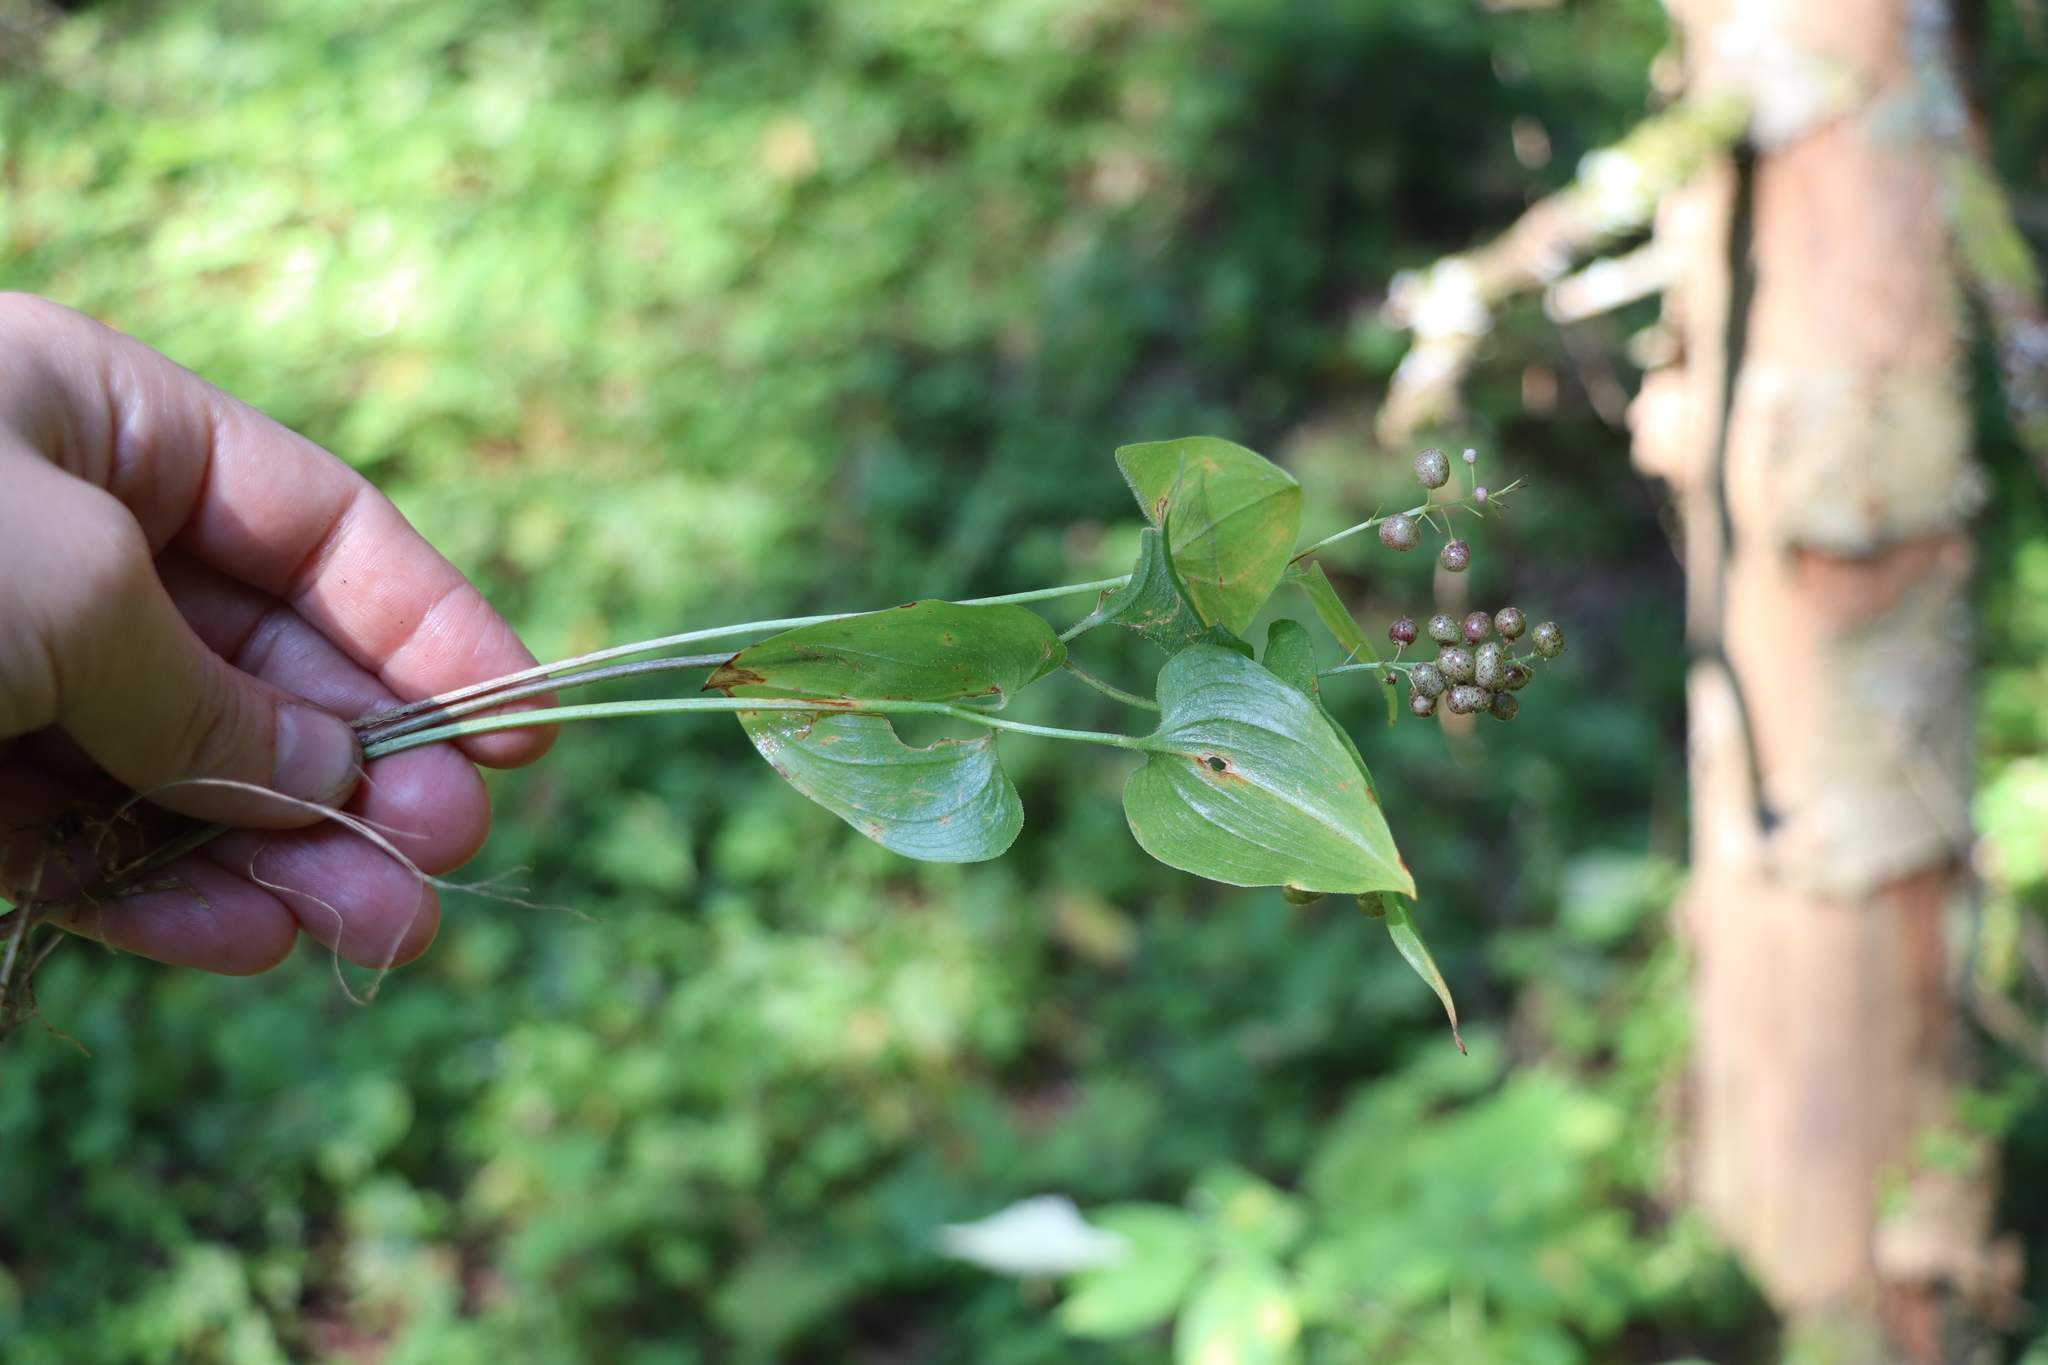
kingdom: Plantae
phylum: Tracheophyta
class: Liliopsida
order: Asparagales
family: Asparagaceae
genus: Maianthemum
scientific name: Maianthemum bifolium
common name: May lily
